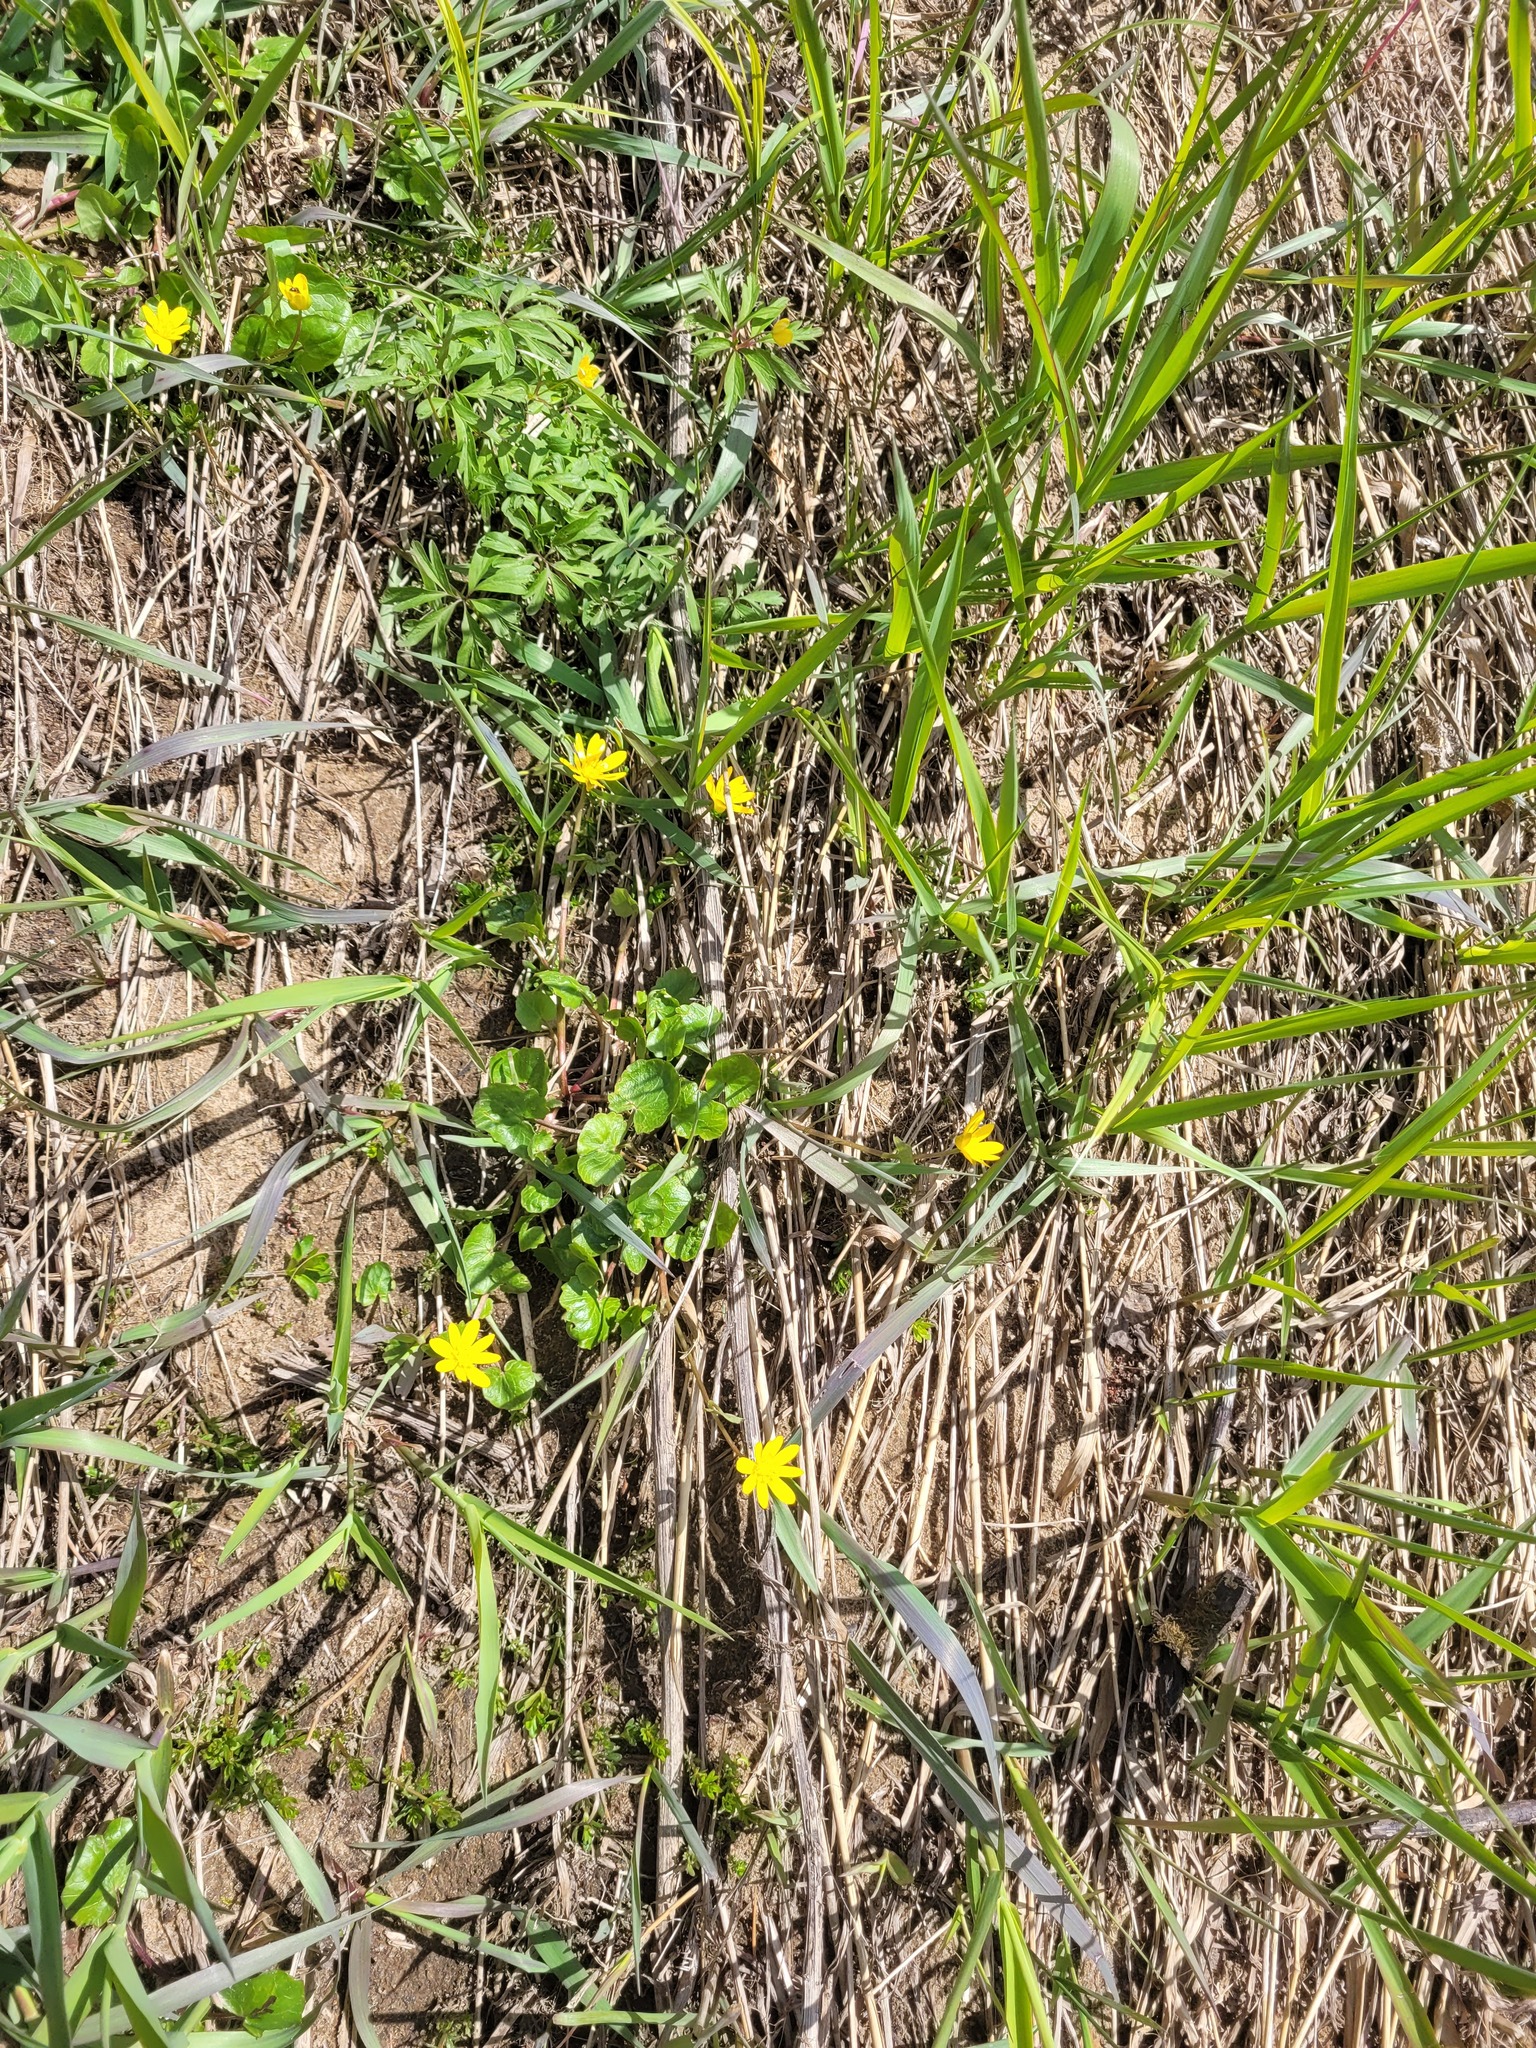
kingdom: Plantae
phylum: Tracheophyta
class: Magnoliopsida
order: Ranunculales
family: Ranunculaceae
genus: Ficaria
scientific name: Ficaria verna
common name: Lesser celandine
